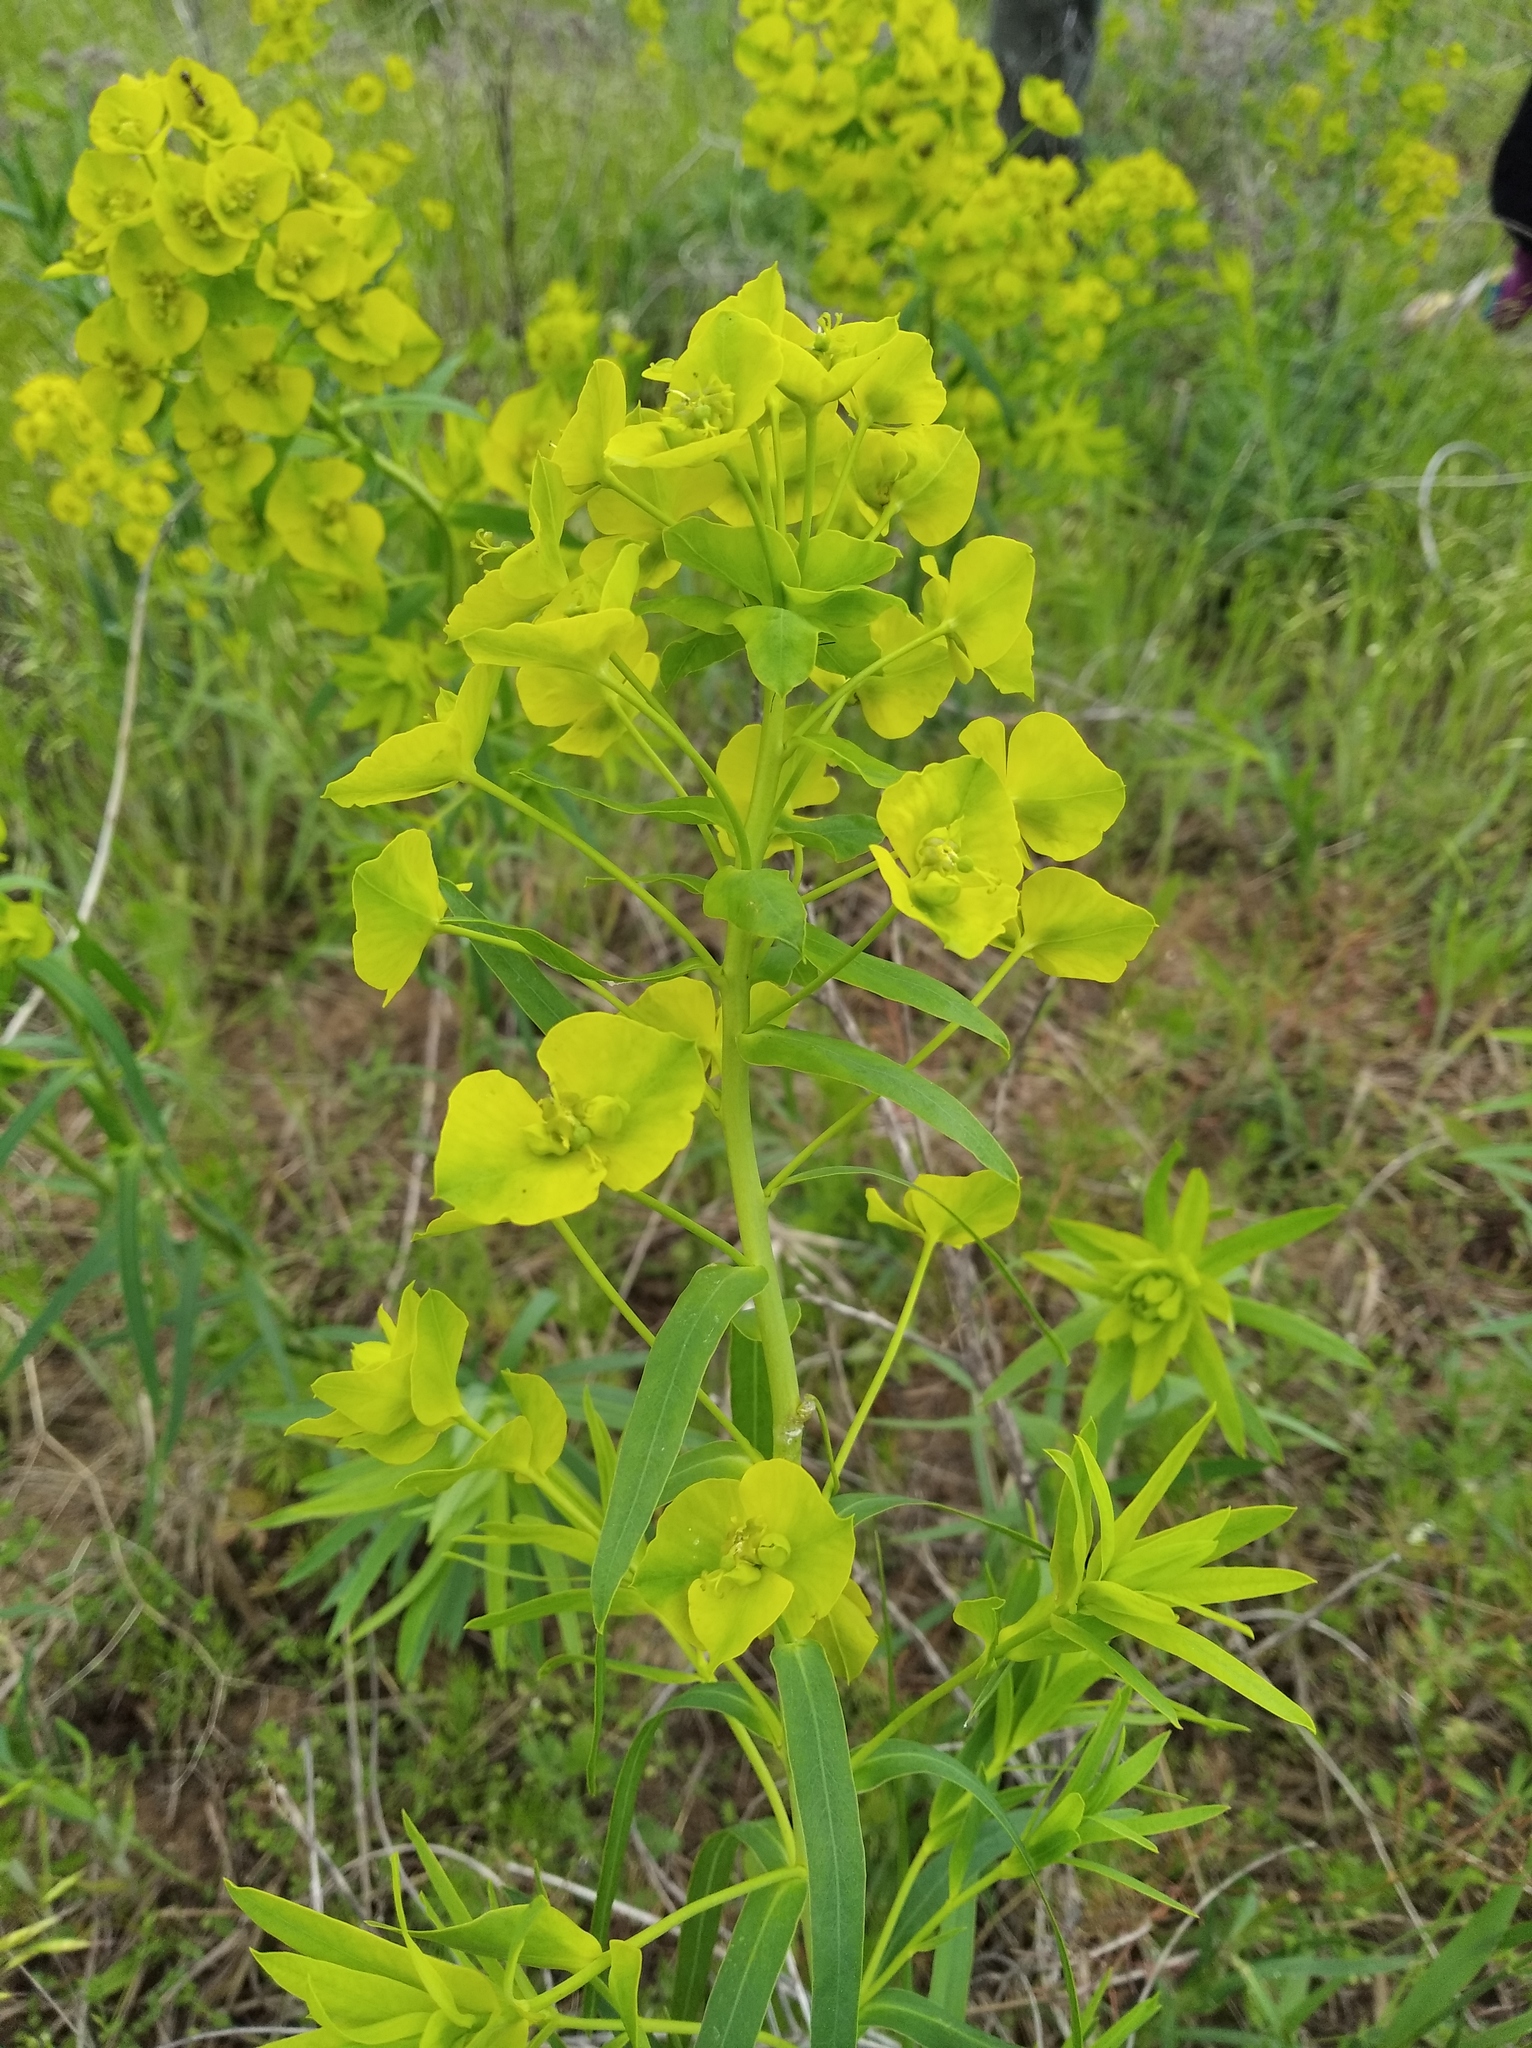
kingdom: Plantae
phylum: Tracheophyta
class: Magnoliopsida
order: Malpighiales
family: Euphorbiaceae
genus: Euphorbia
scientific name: Euphorbia esula
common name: Leafy spurge
